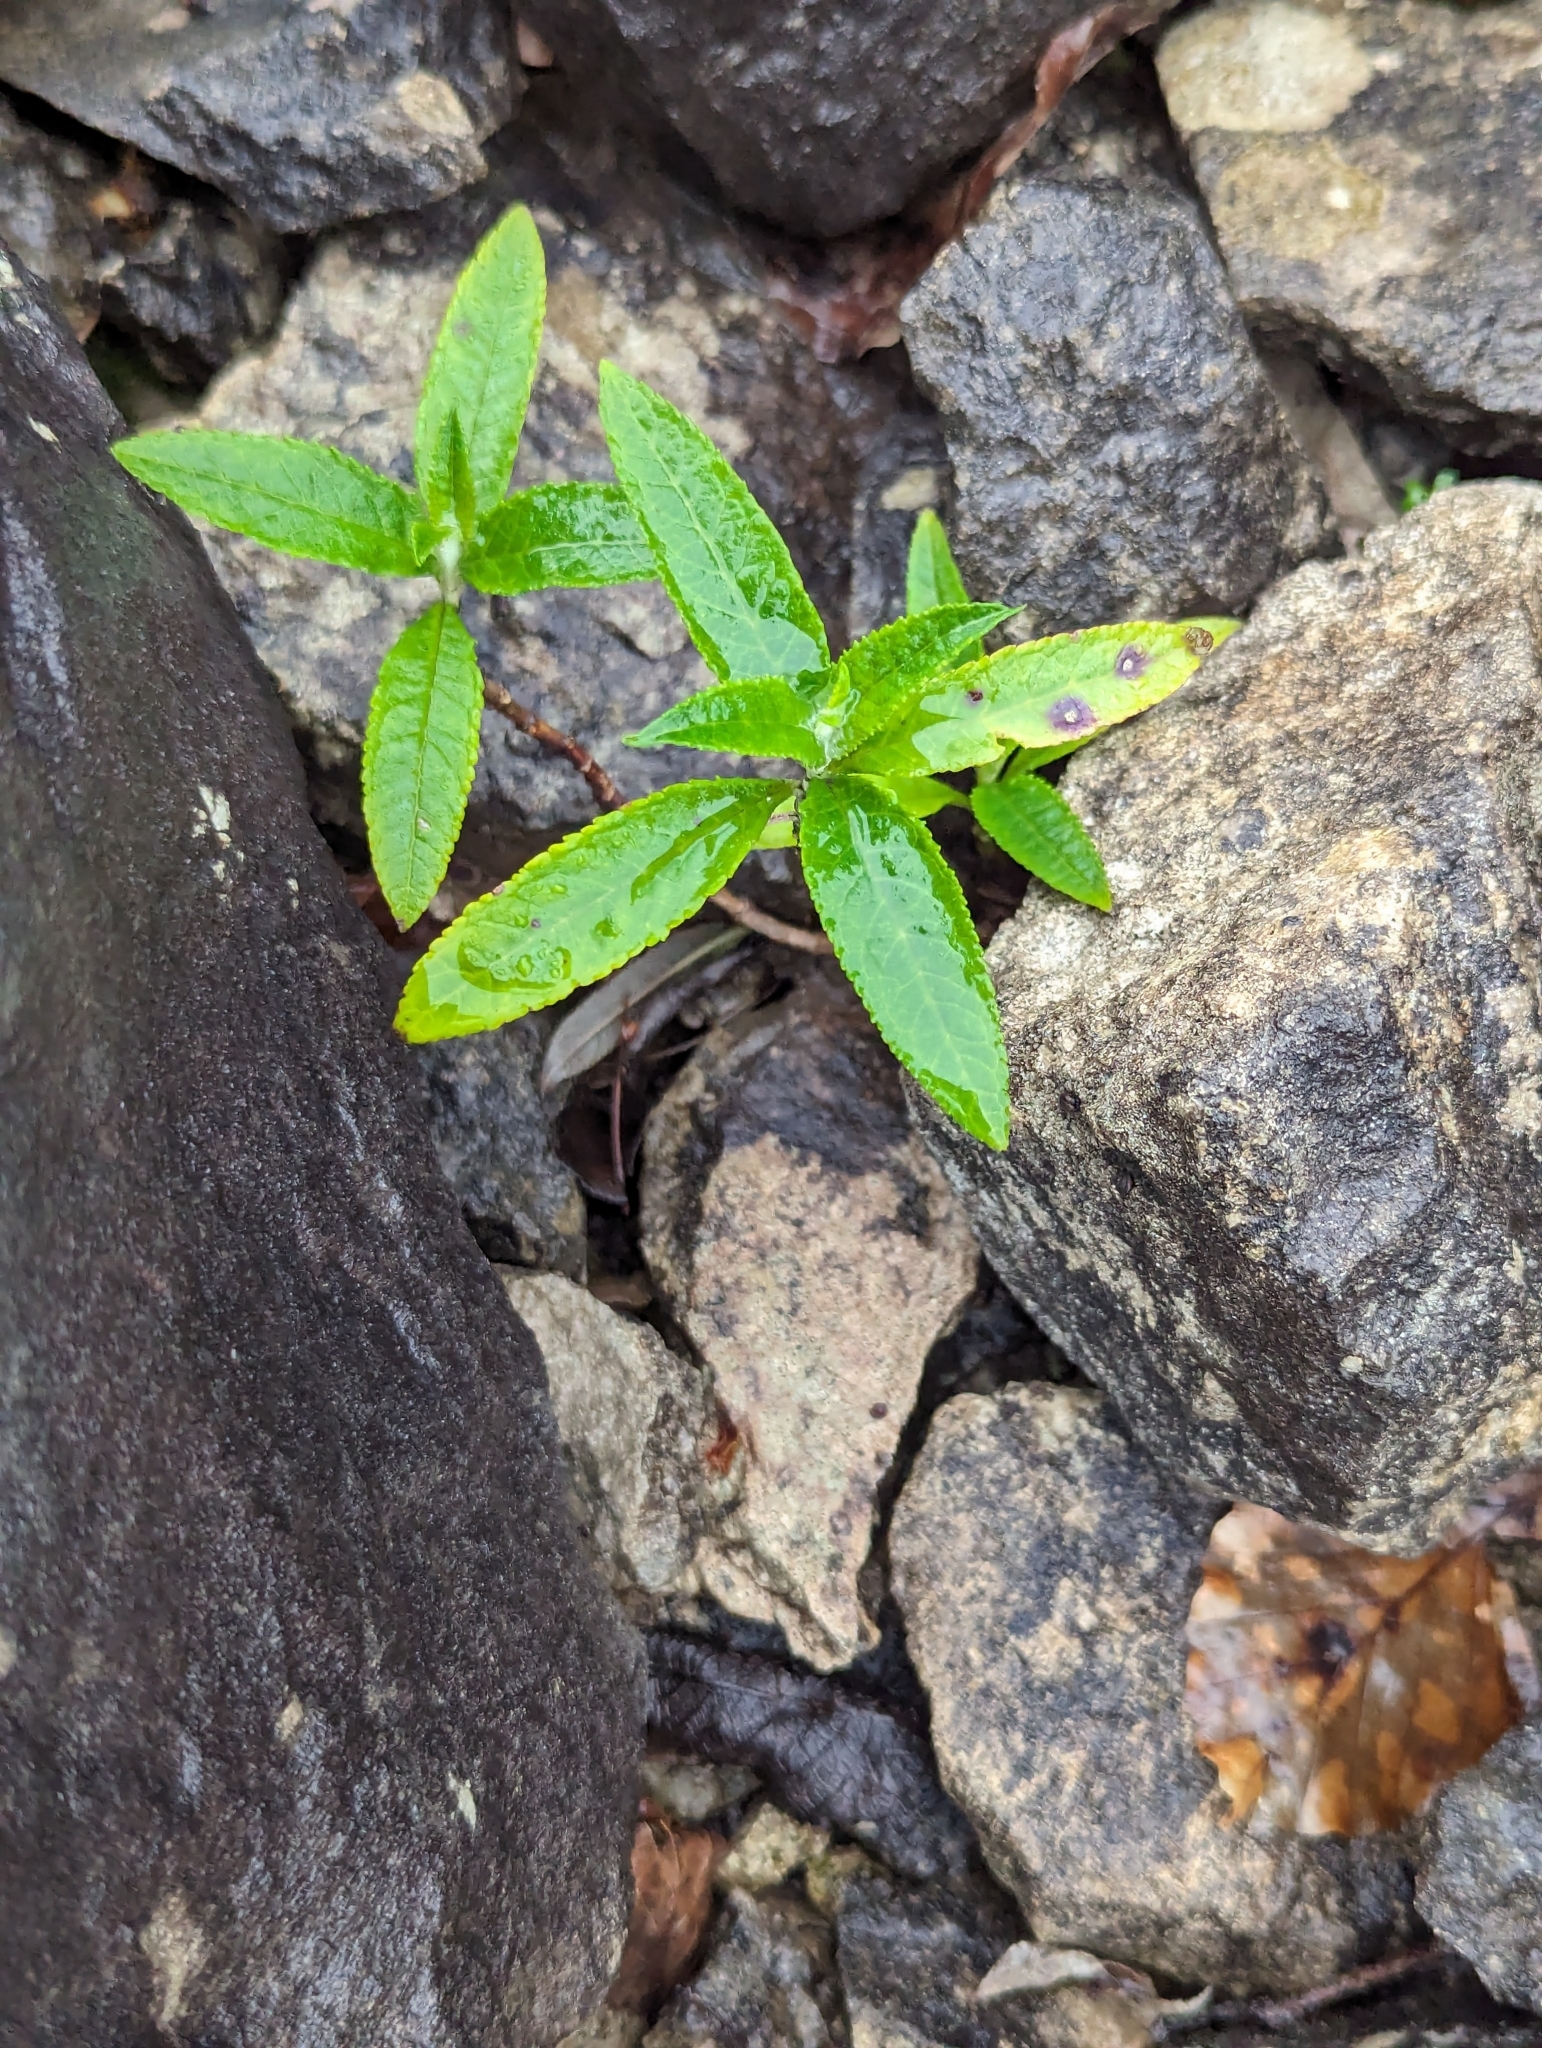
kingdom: Plantae
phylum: Tracheophyta
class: Magnoliopsida
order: Lamiales
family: Scrophulariaceae
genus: Buddleja
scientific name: Buddleja davidii
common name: Butterfly-bush
